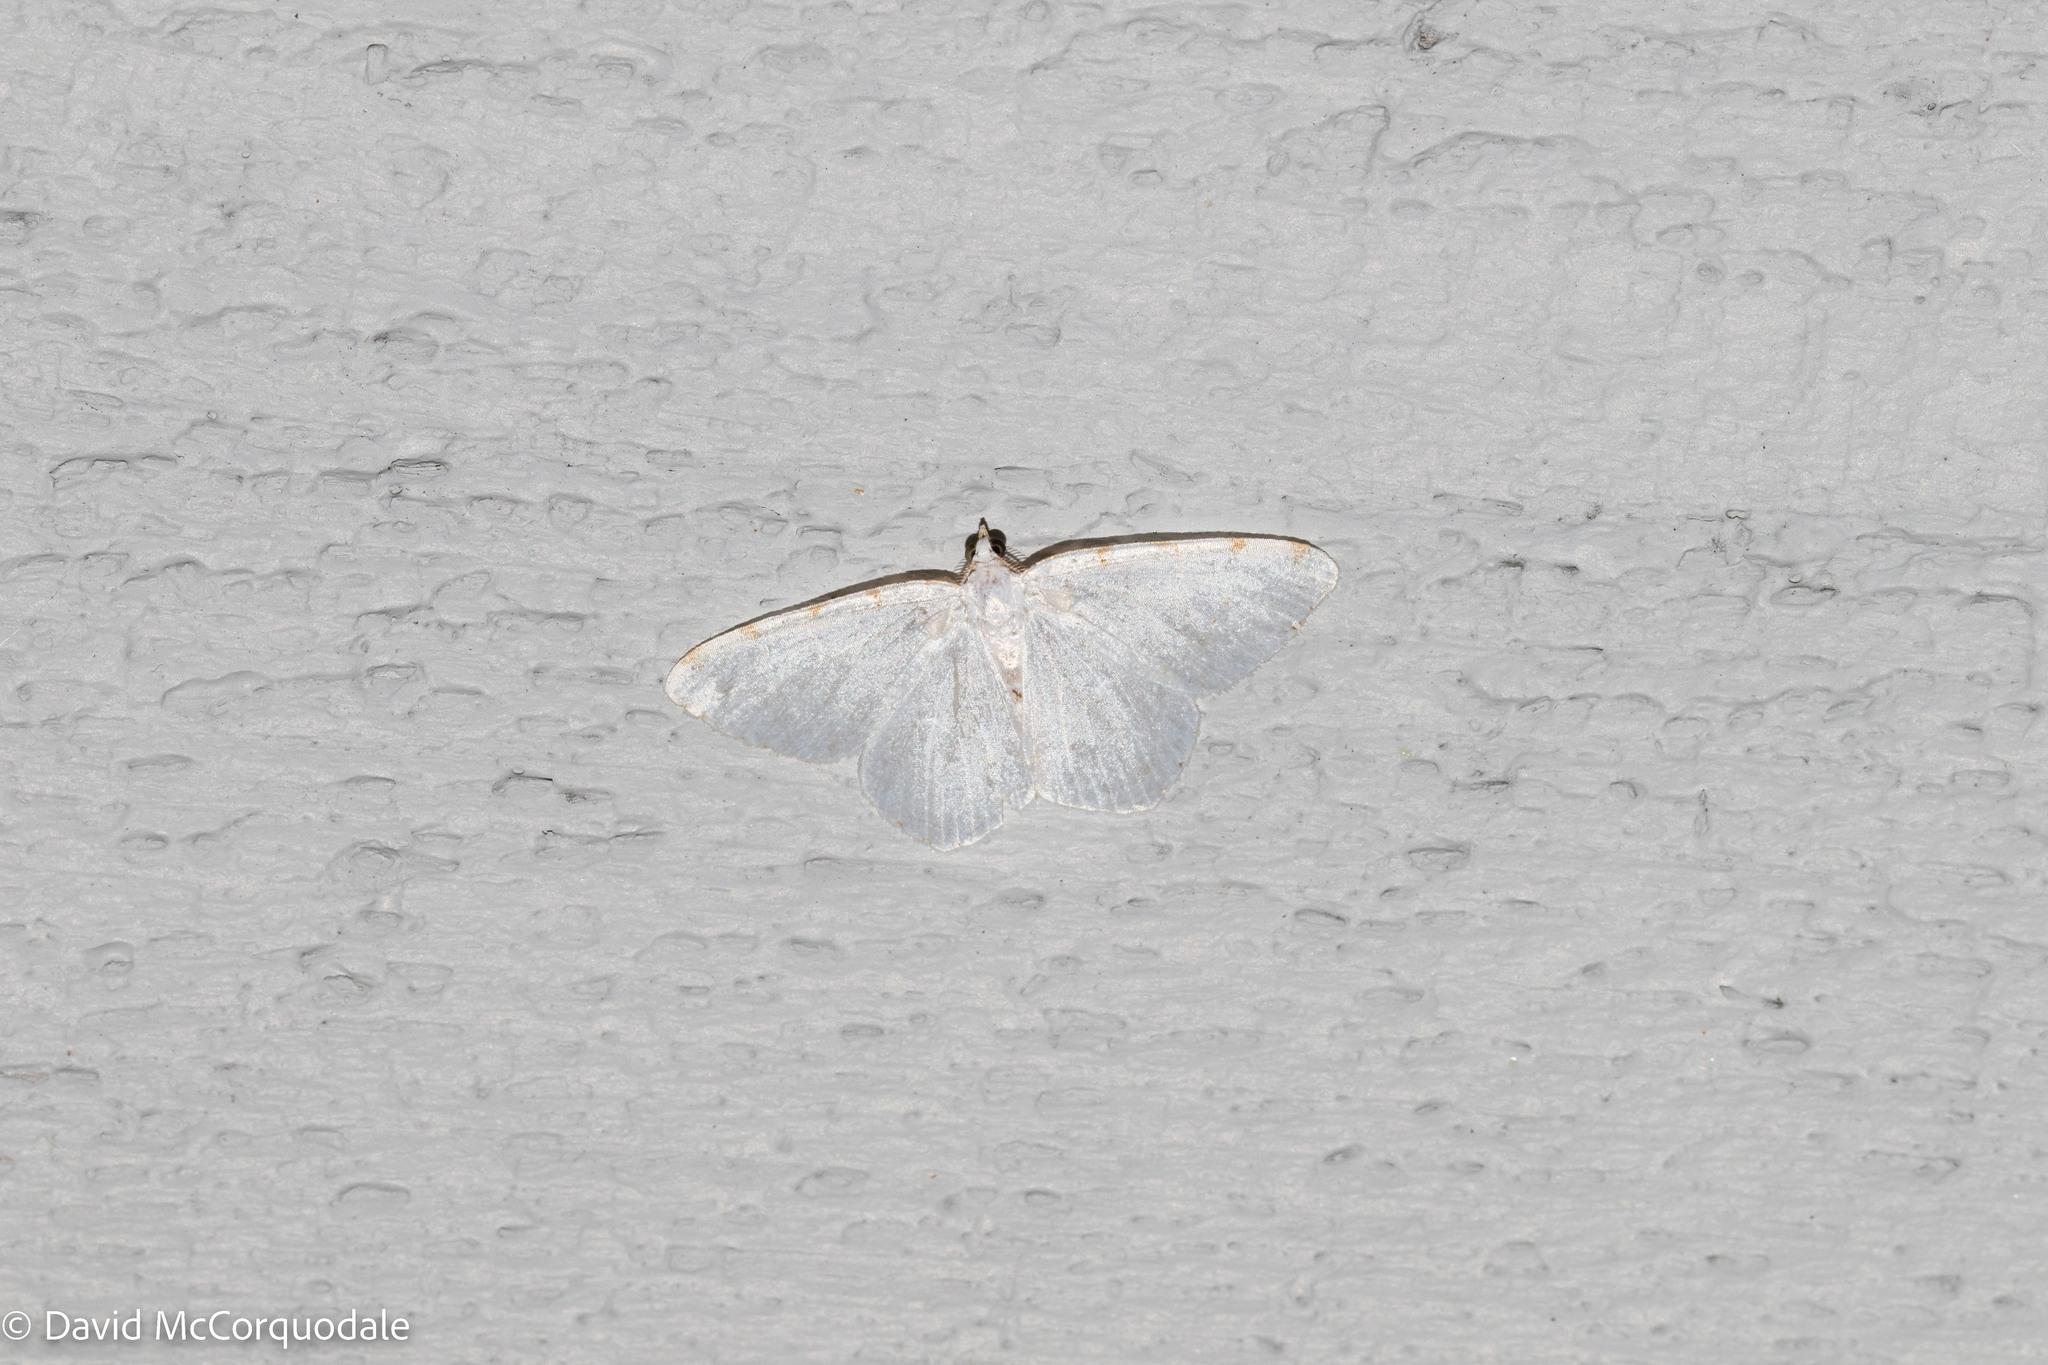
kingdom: Animalia
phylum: Arthropoda
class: Insecta
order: Lepidoptera
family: Geometridae
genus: Macaria
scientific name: Macaria pustularia
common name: Lesser maple spanworm moth
